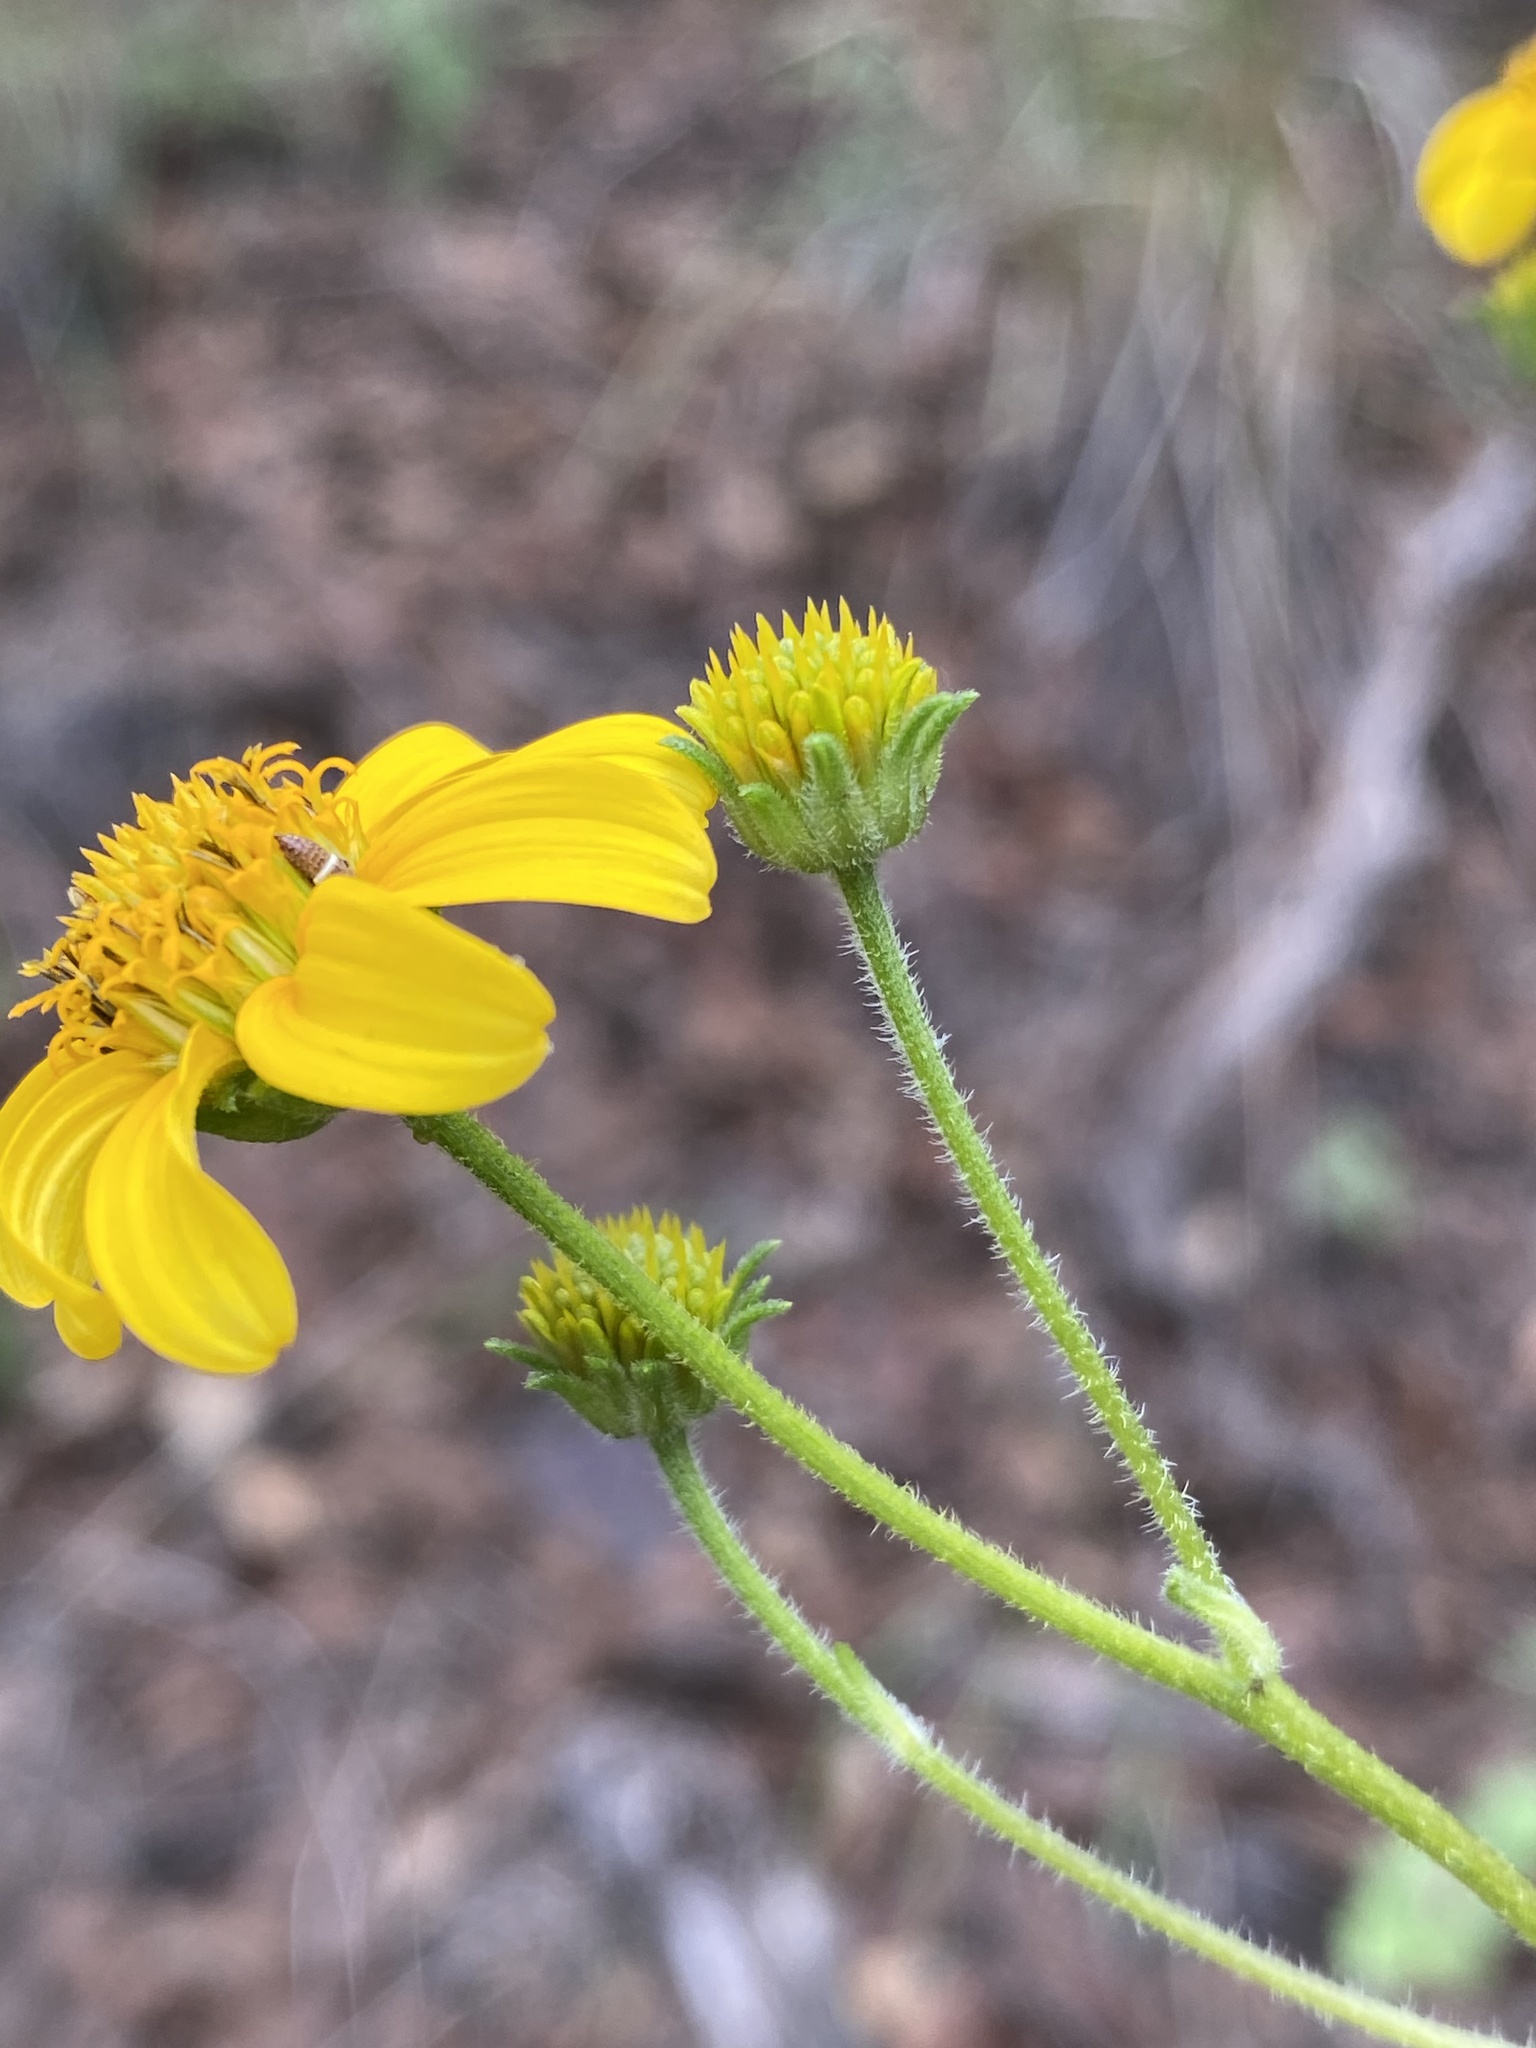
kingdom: Plantae
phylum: Tracheophyta
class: Magnoliopsida
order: Asterales
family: Asteraceae
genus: Viguiera
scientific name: Viguiera dentata
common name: Toothleaf
